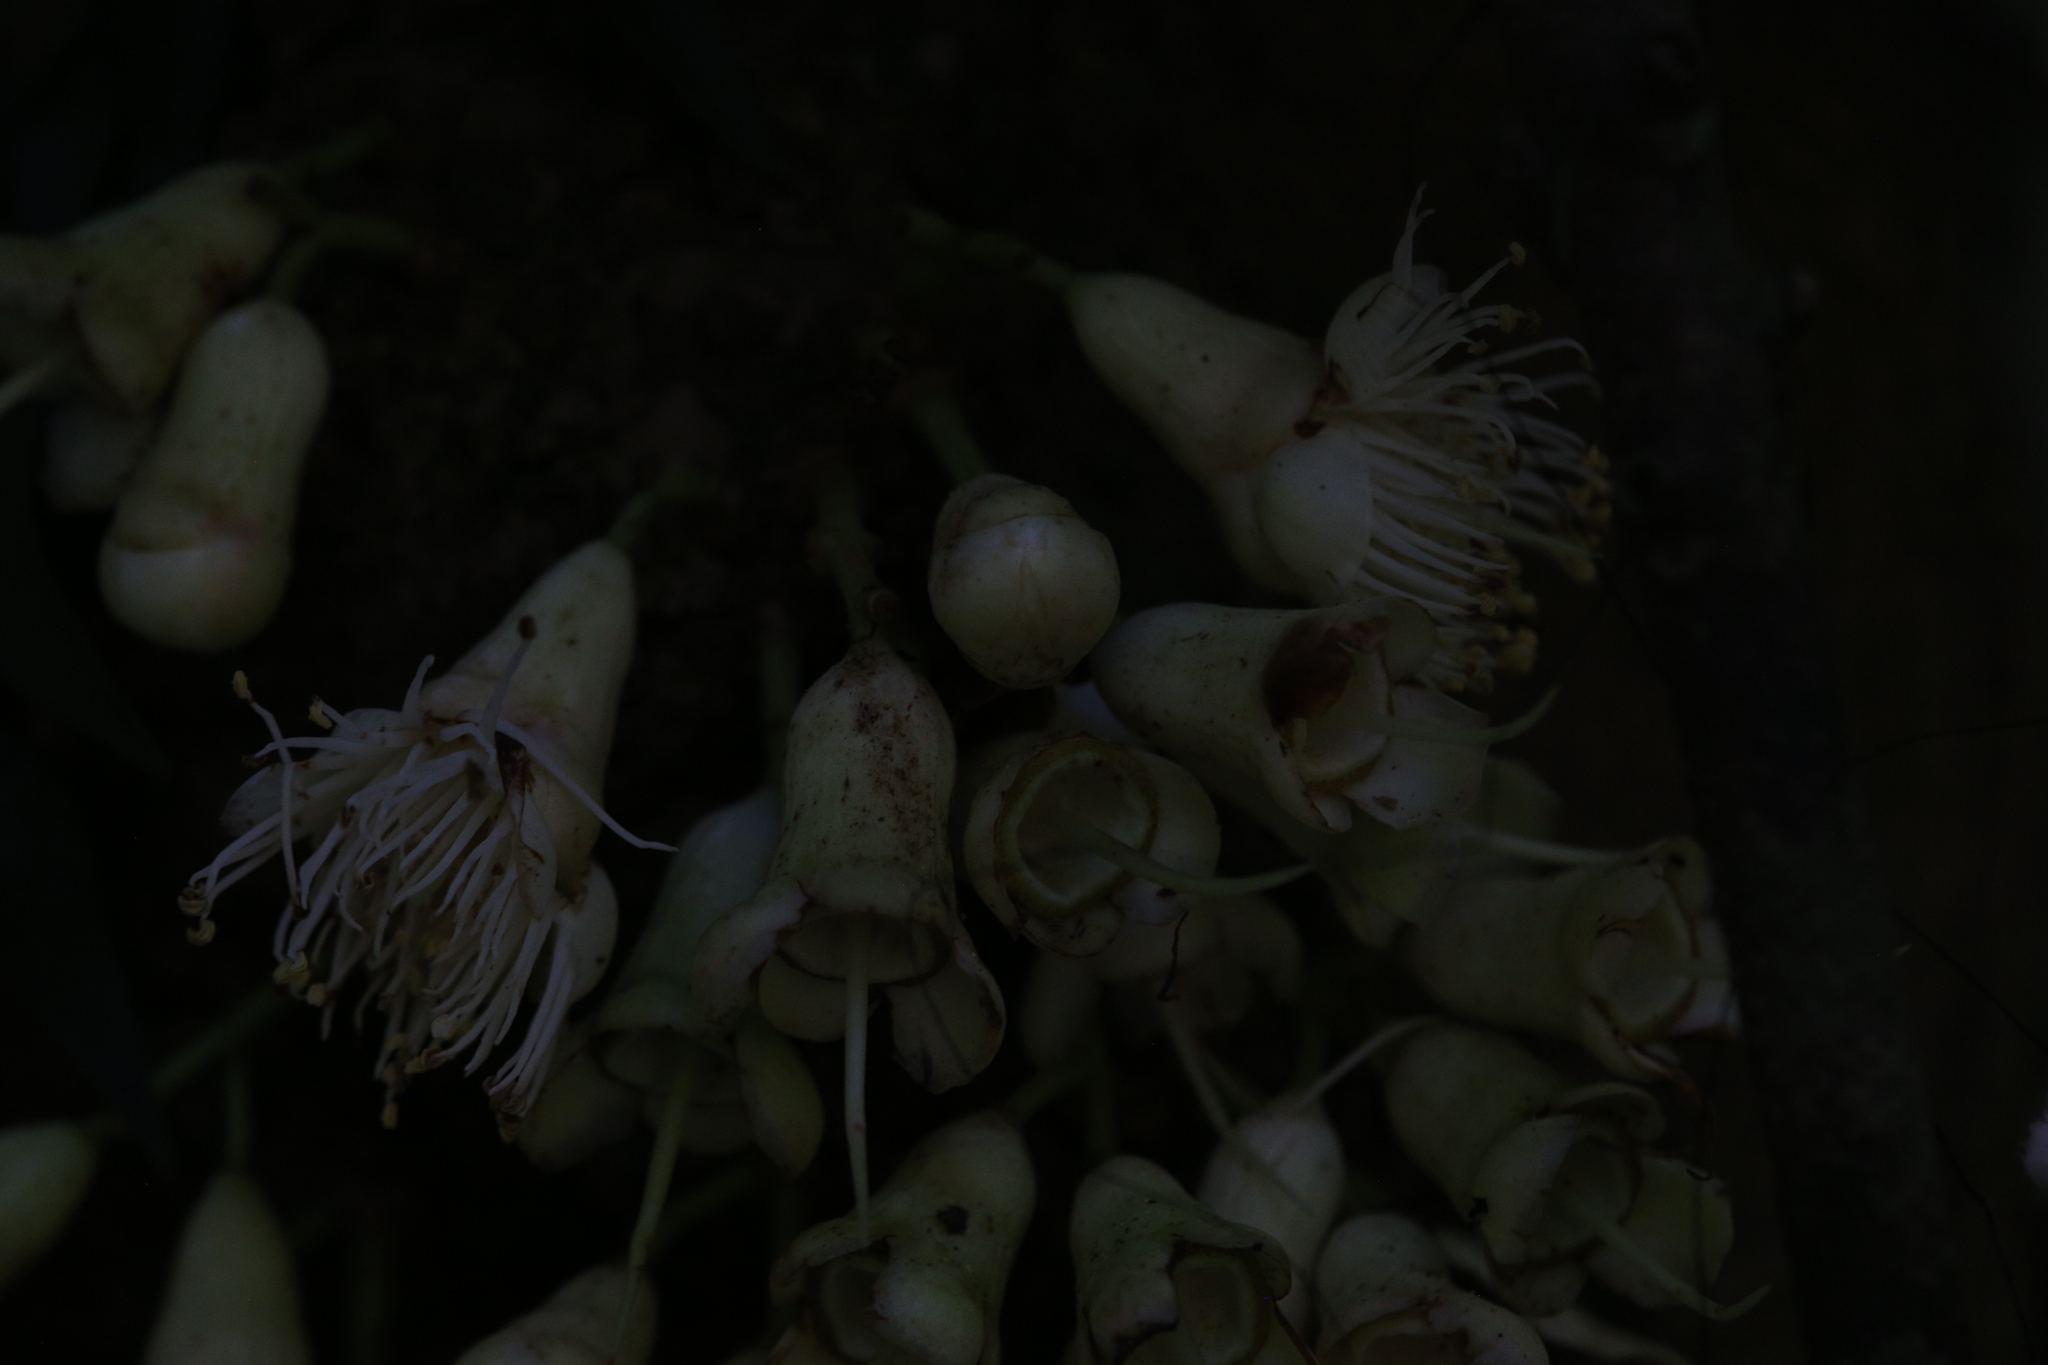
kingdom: Plantae
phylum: Tracheophyta
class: Magnoliopsida
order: Myrtales
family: Myrtaceae
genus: Syzygium
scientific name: Syzygium cormiflorum
